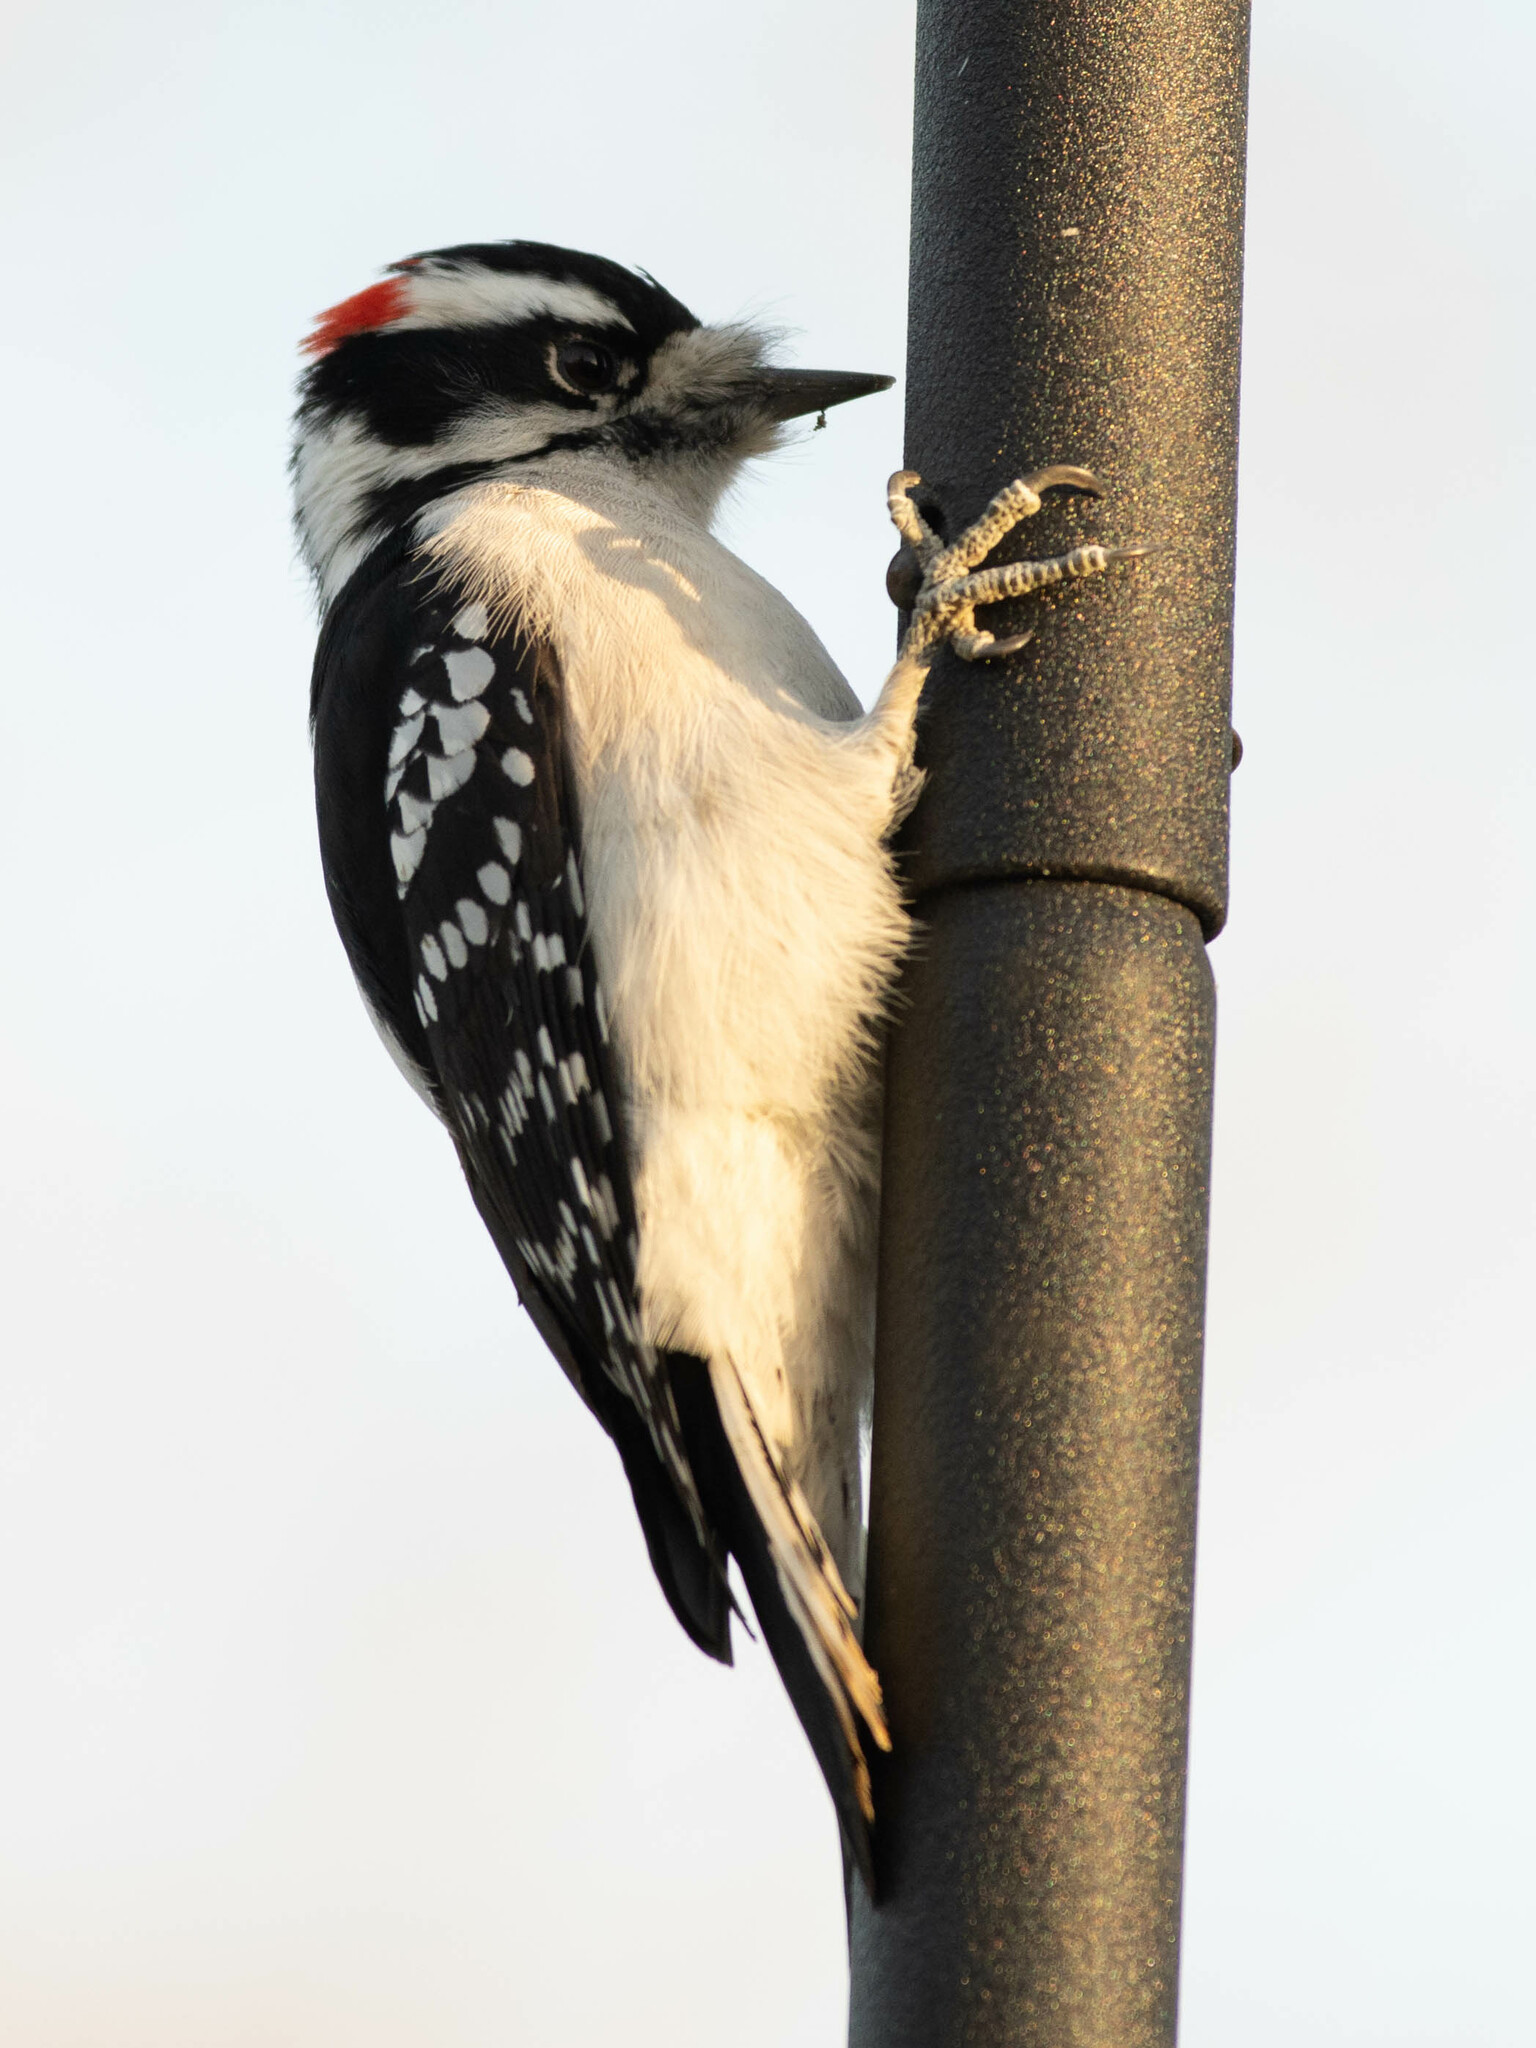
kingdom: Animalia
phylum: Chordata
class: Aves
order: Piciformes
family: Picidae
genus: Dryobates
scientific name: Dryobates pubescens
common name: Downy woodpecker
